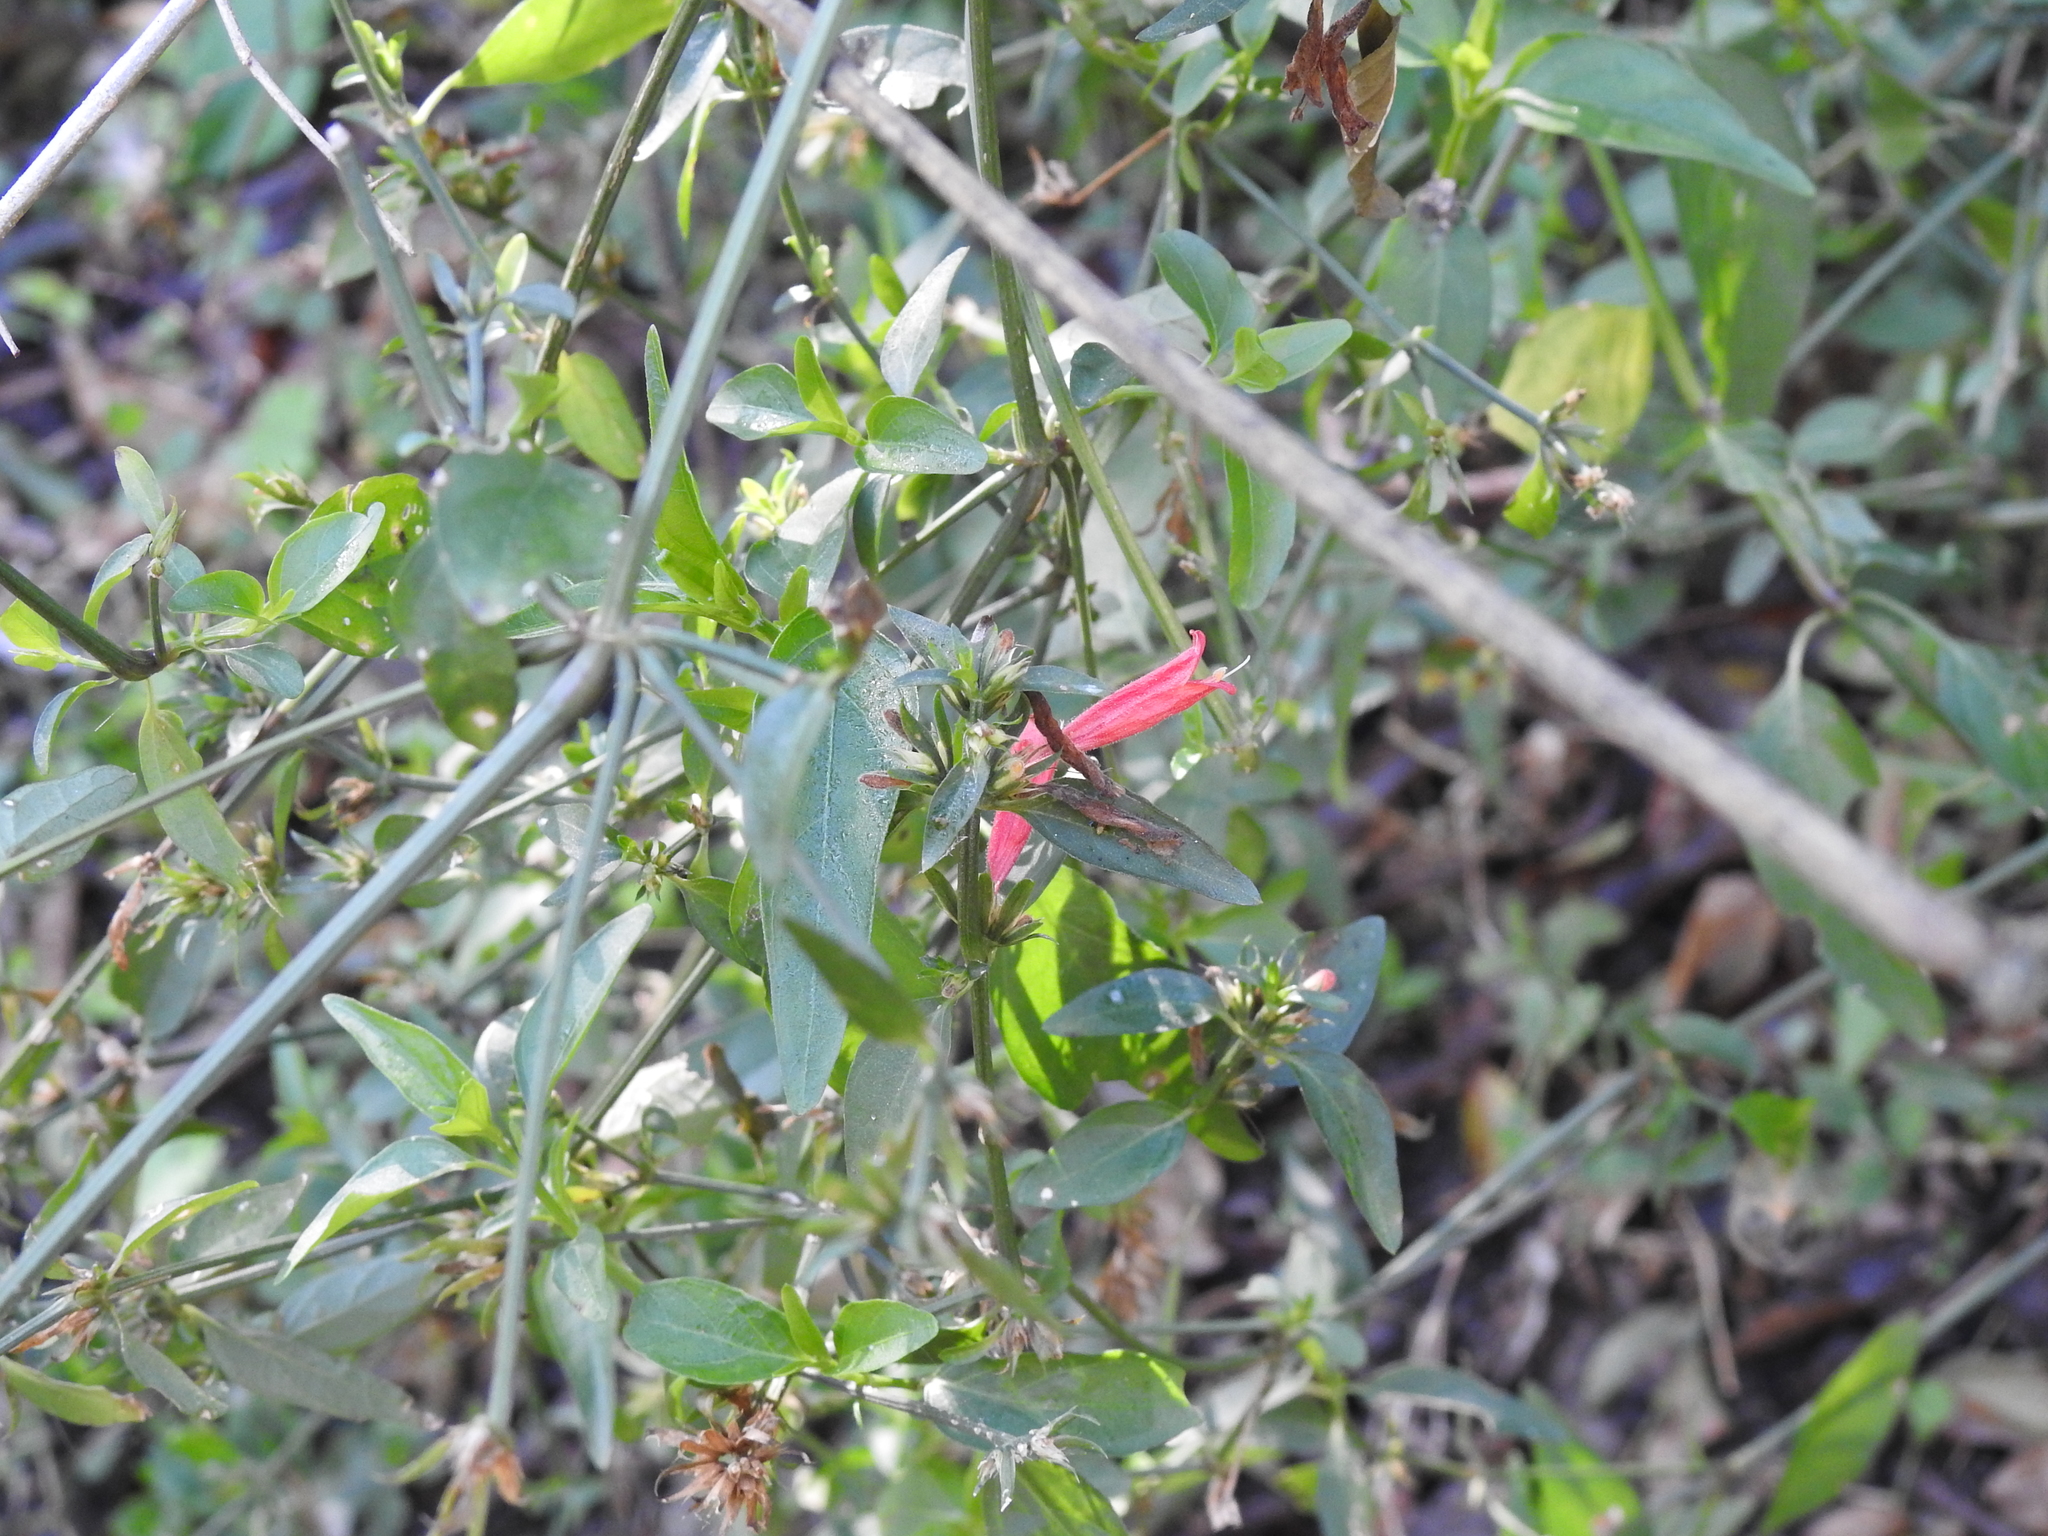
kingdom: Plantae
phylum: Tracheophyta
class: Magnoliopsida
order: Lamiales
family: Acanthaceae
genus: Dicliptera
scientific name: Dicliptera squarrosa
